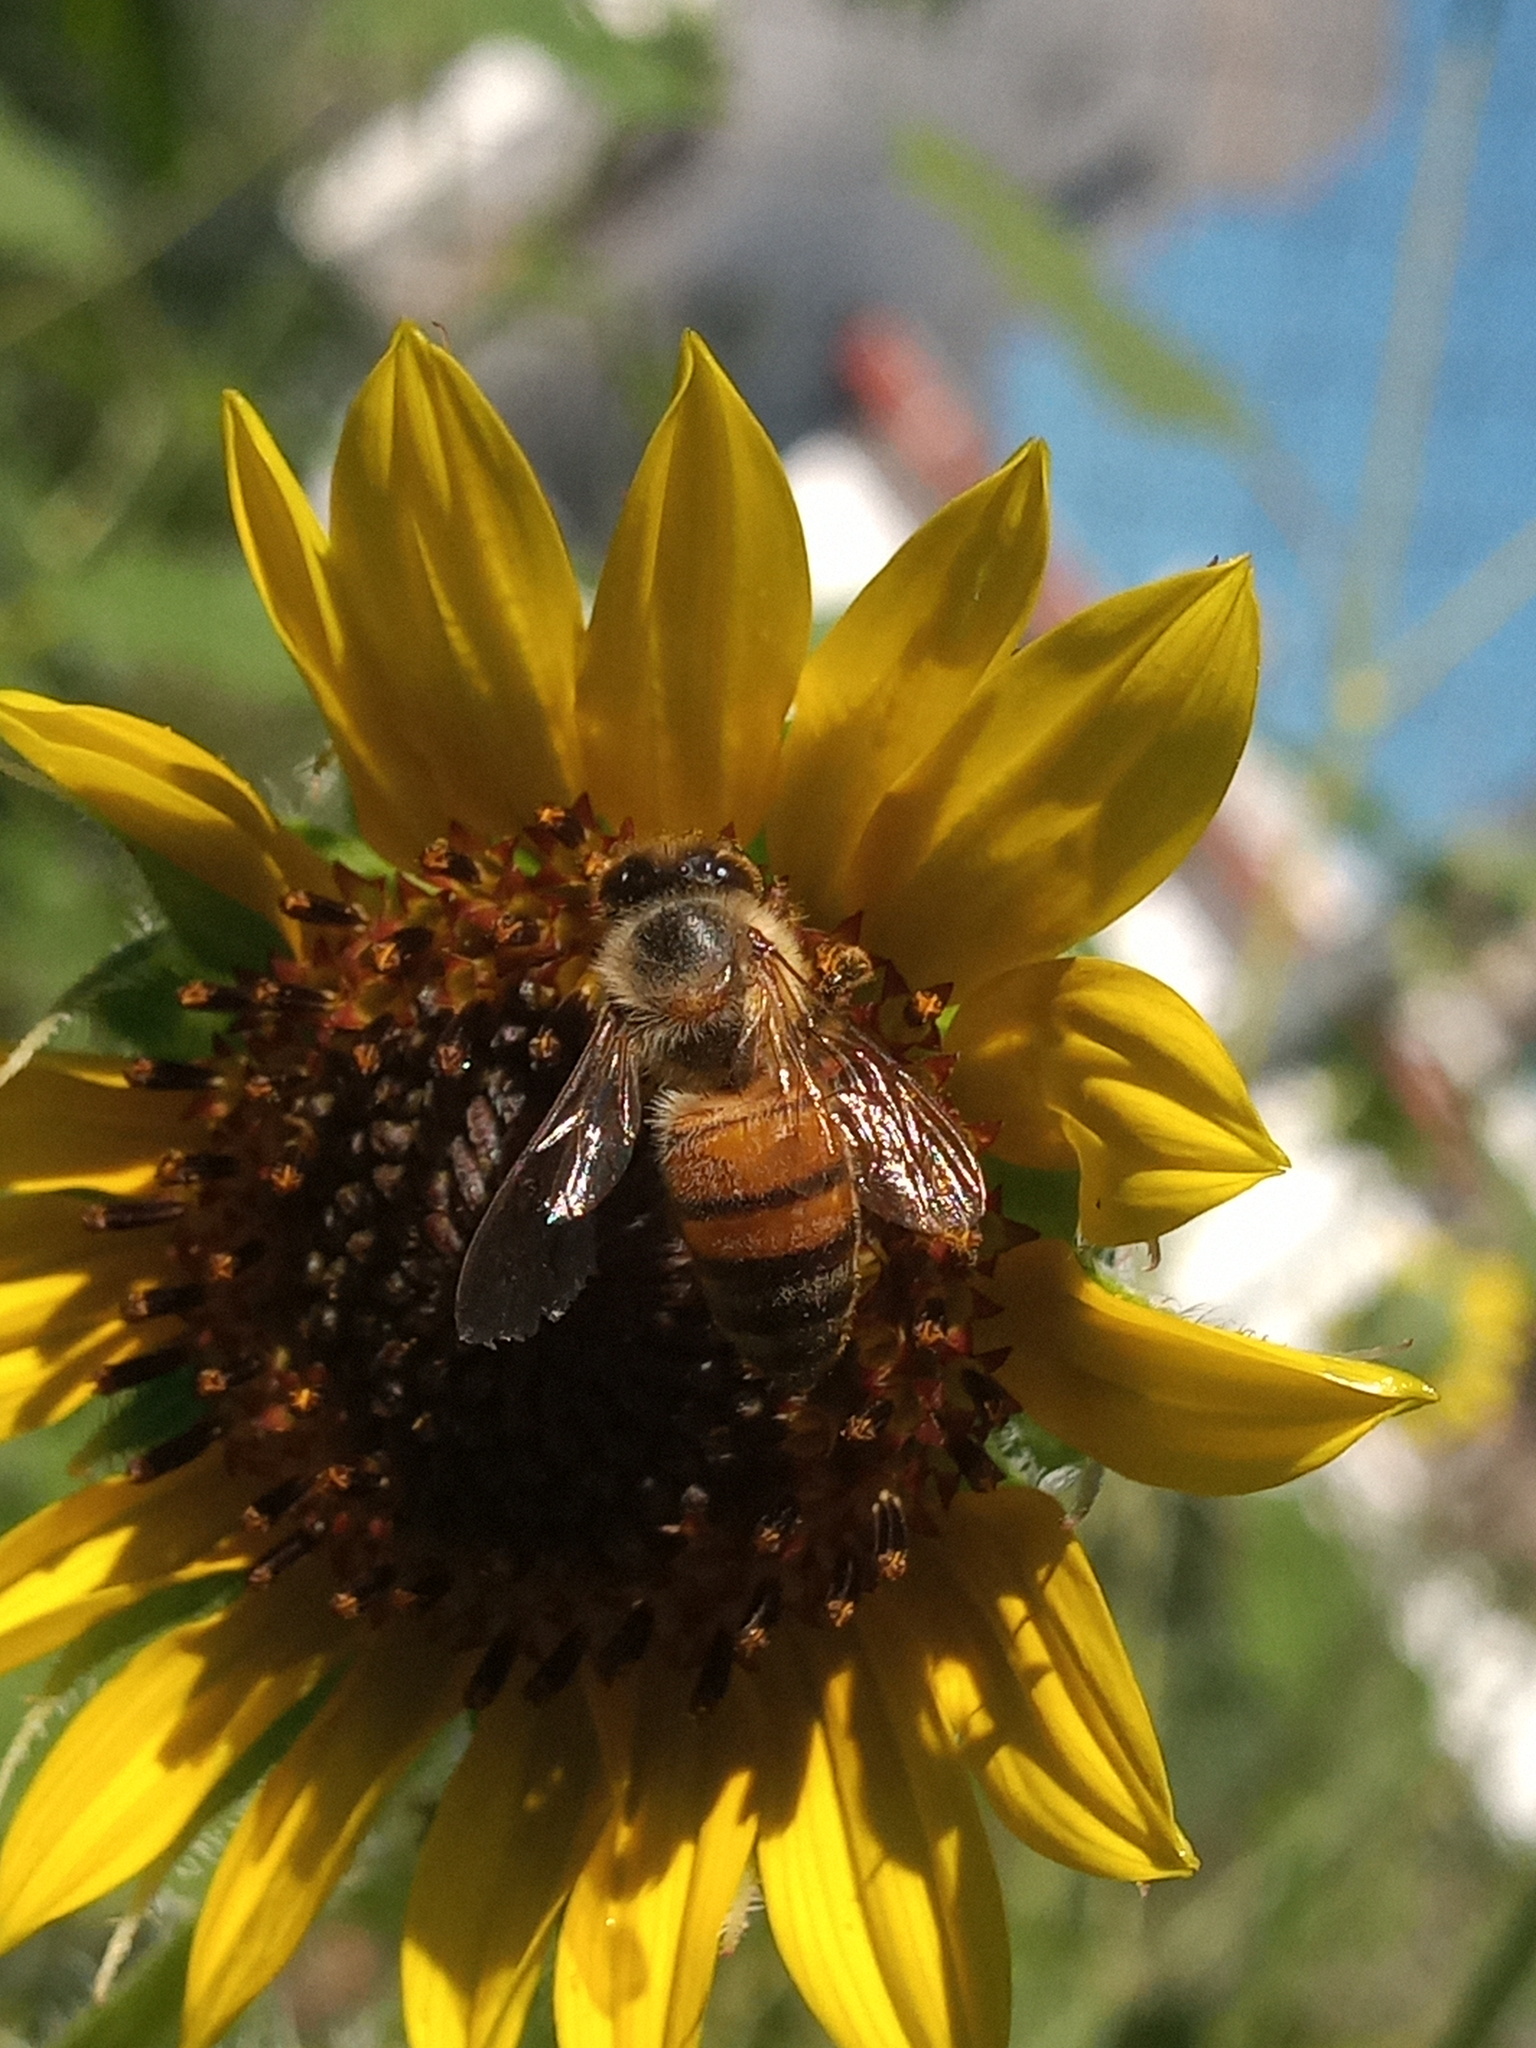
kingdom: Animalia
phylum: Arthropoda
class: Insecta
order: Hymenoptera
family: Apidae
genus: Apis
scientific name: Apis mellifera
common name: Honey bee
